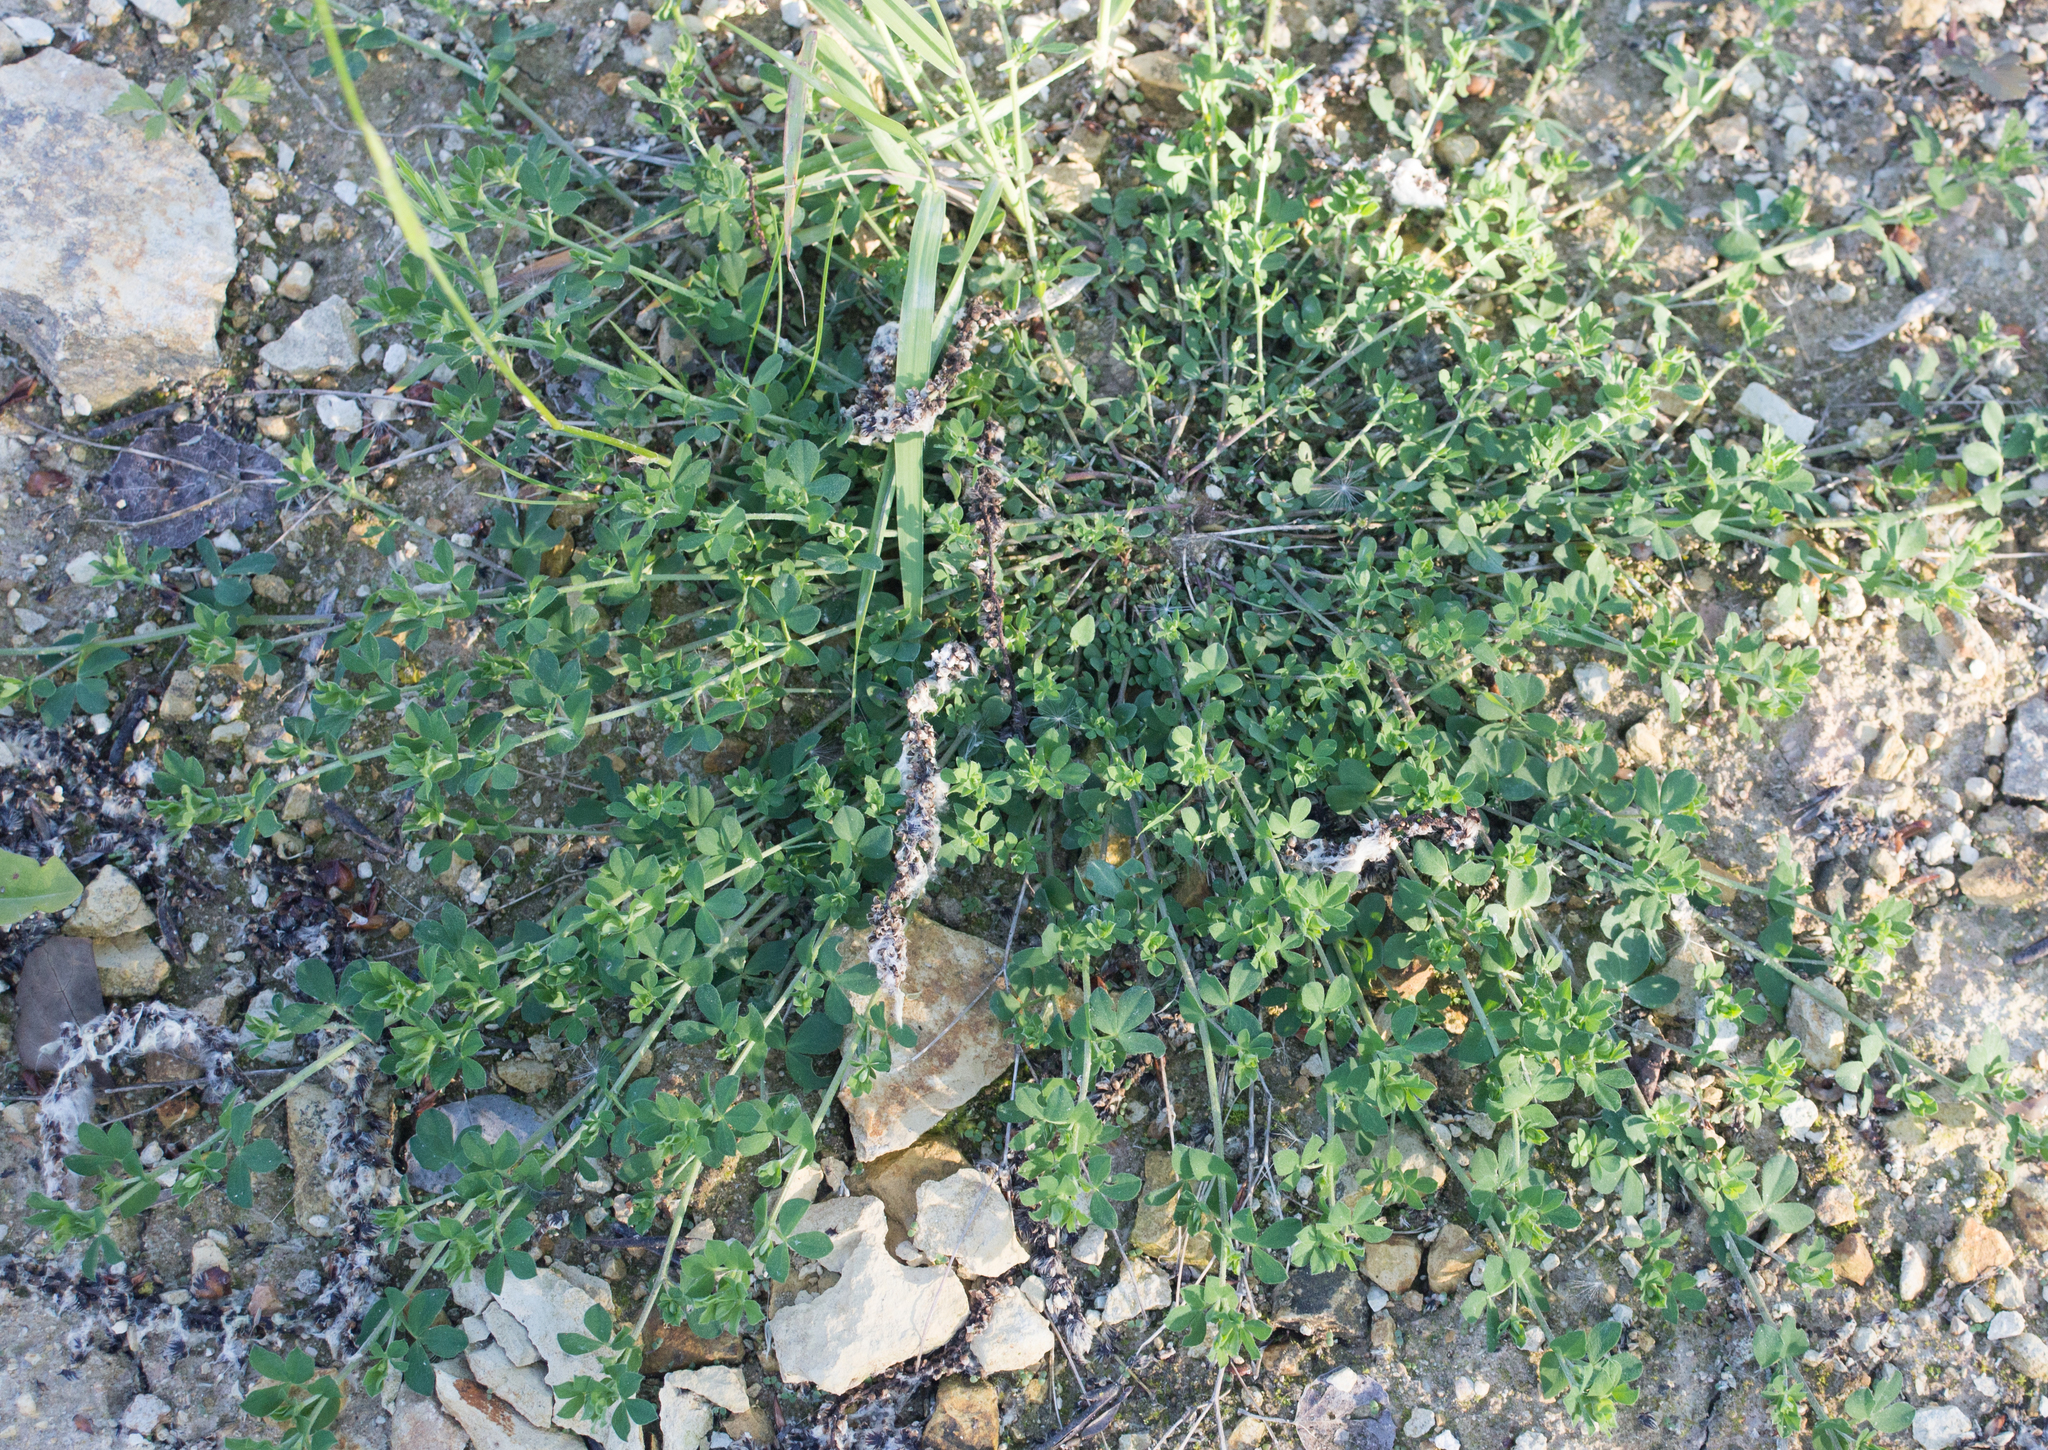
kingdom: Plantae
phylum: Tracheophyta
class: Magnoliopsida
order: Fabales
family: Fabaceae
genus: Lotus
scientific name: Lotus corniculatus
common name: Common bird's-foot-trefoil
